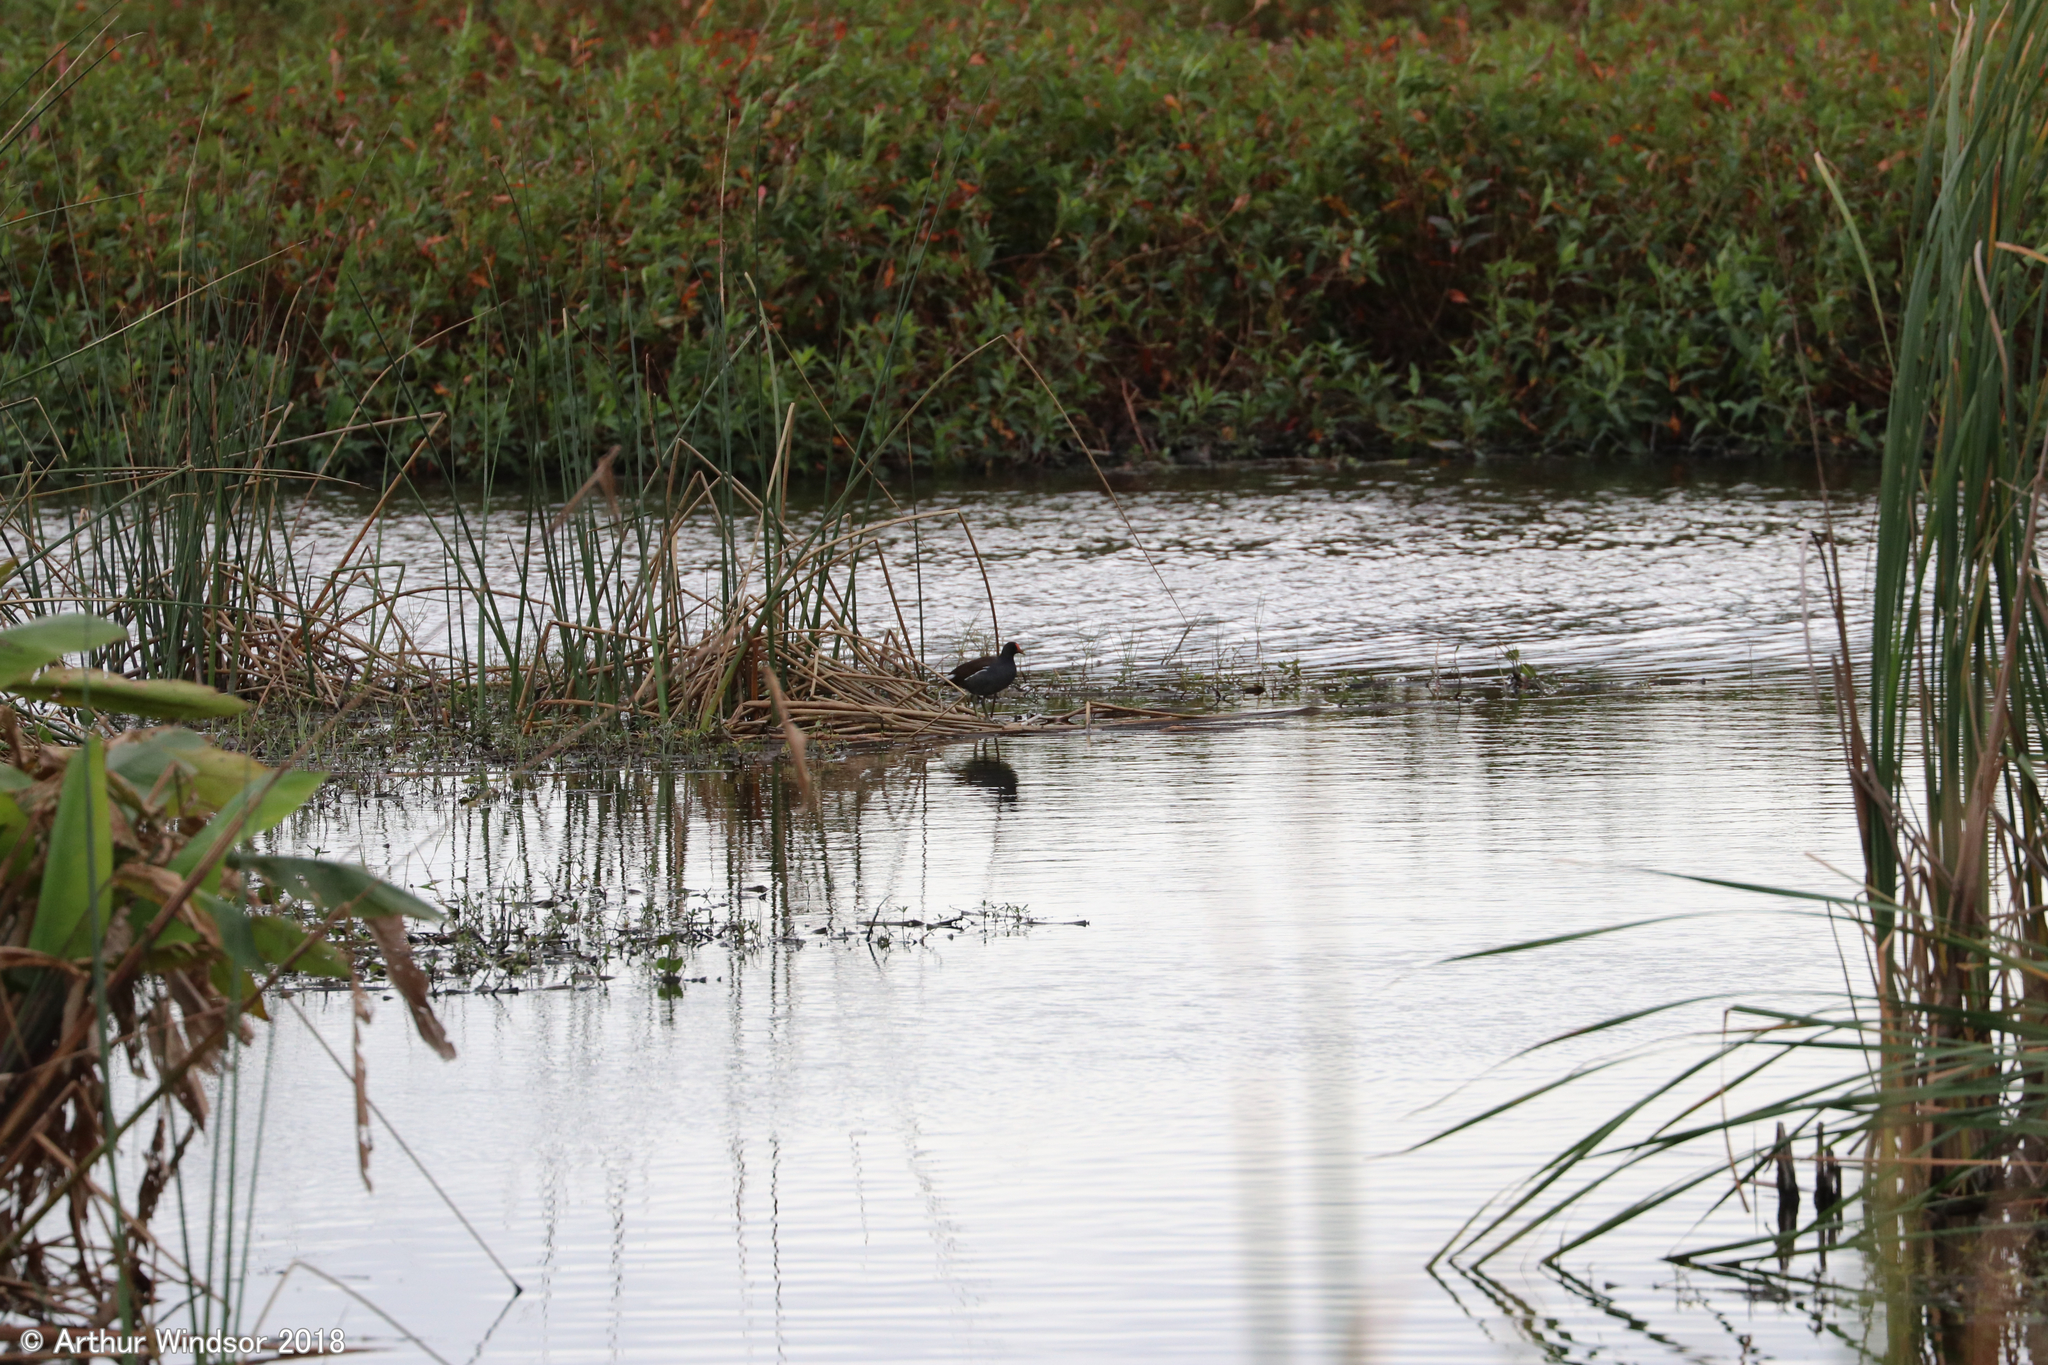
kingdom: Animalia
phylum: Chordata
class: Aves
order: Gruiformes
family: Rallidae
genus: Gallinula
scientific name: Gallinula chloropus
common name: Common moorhen
